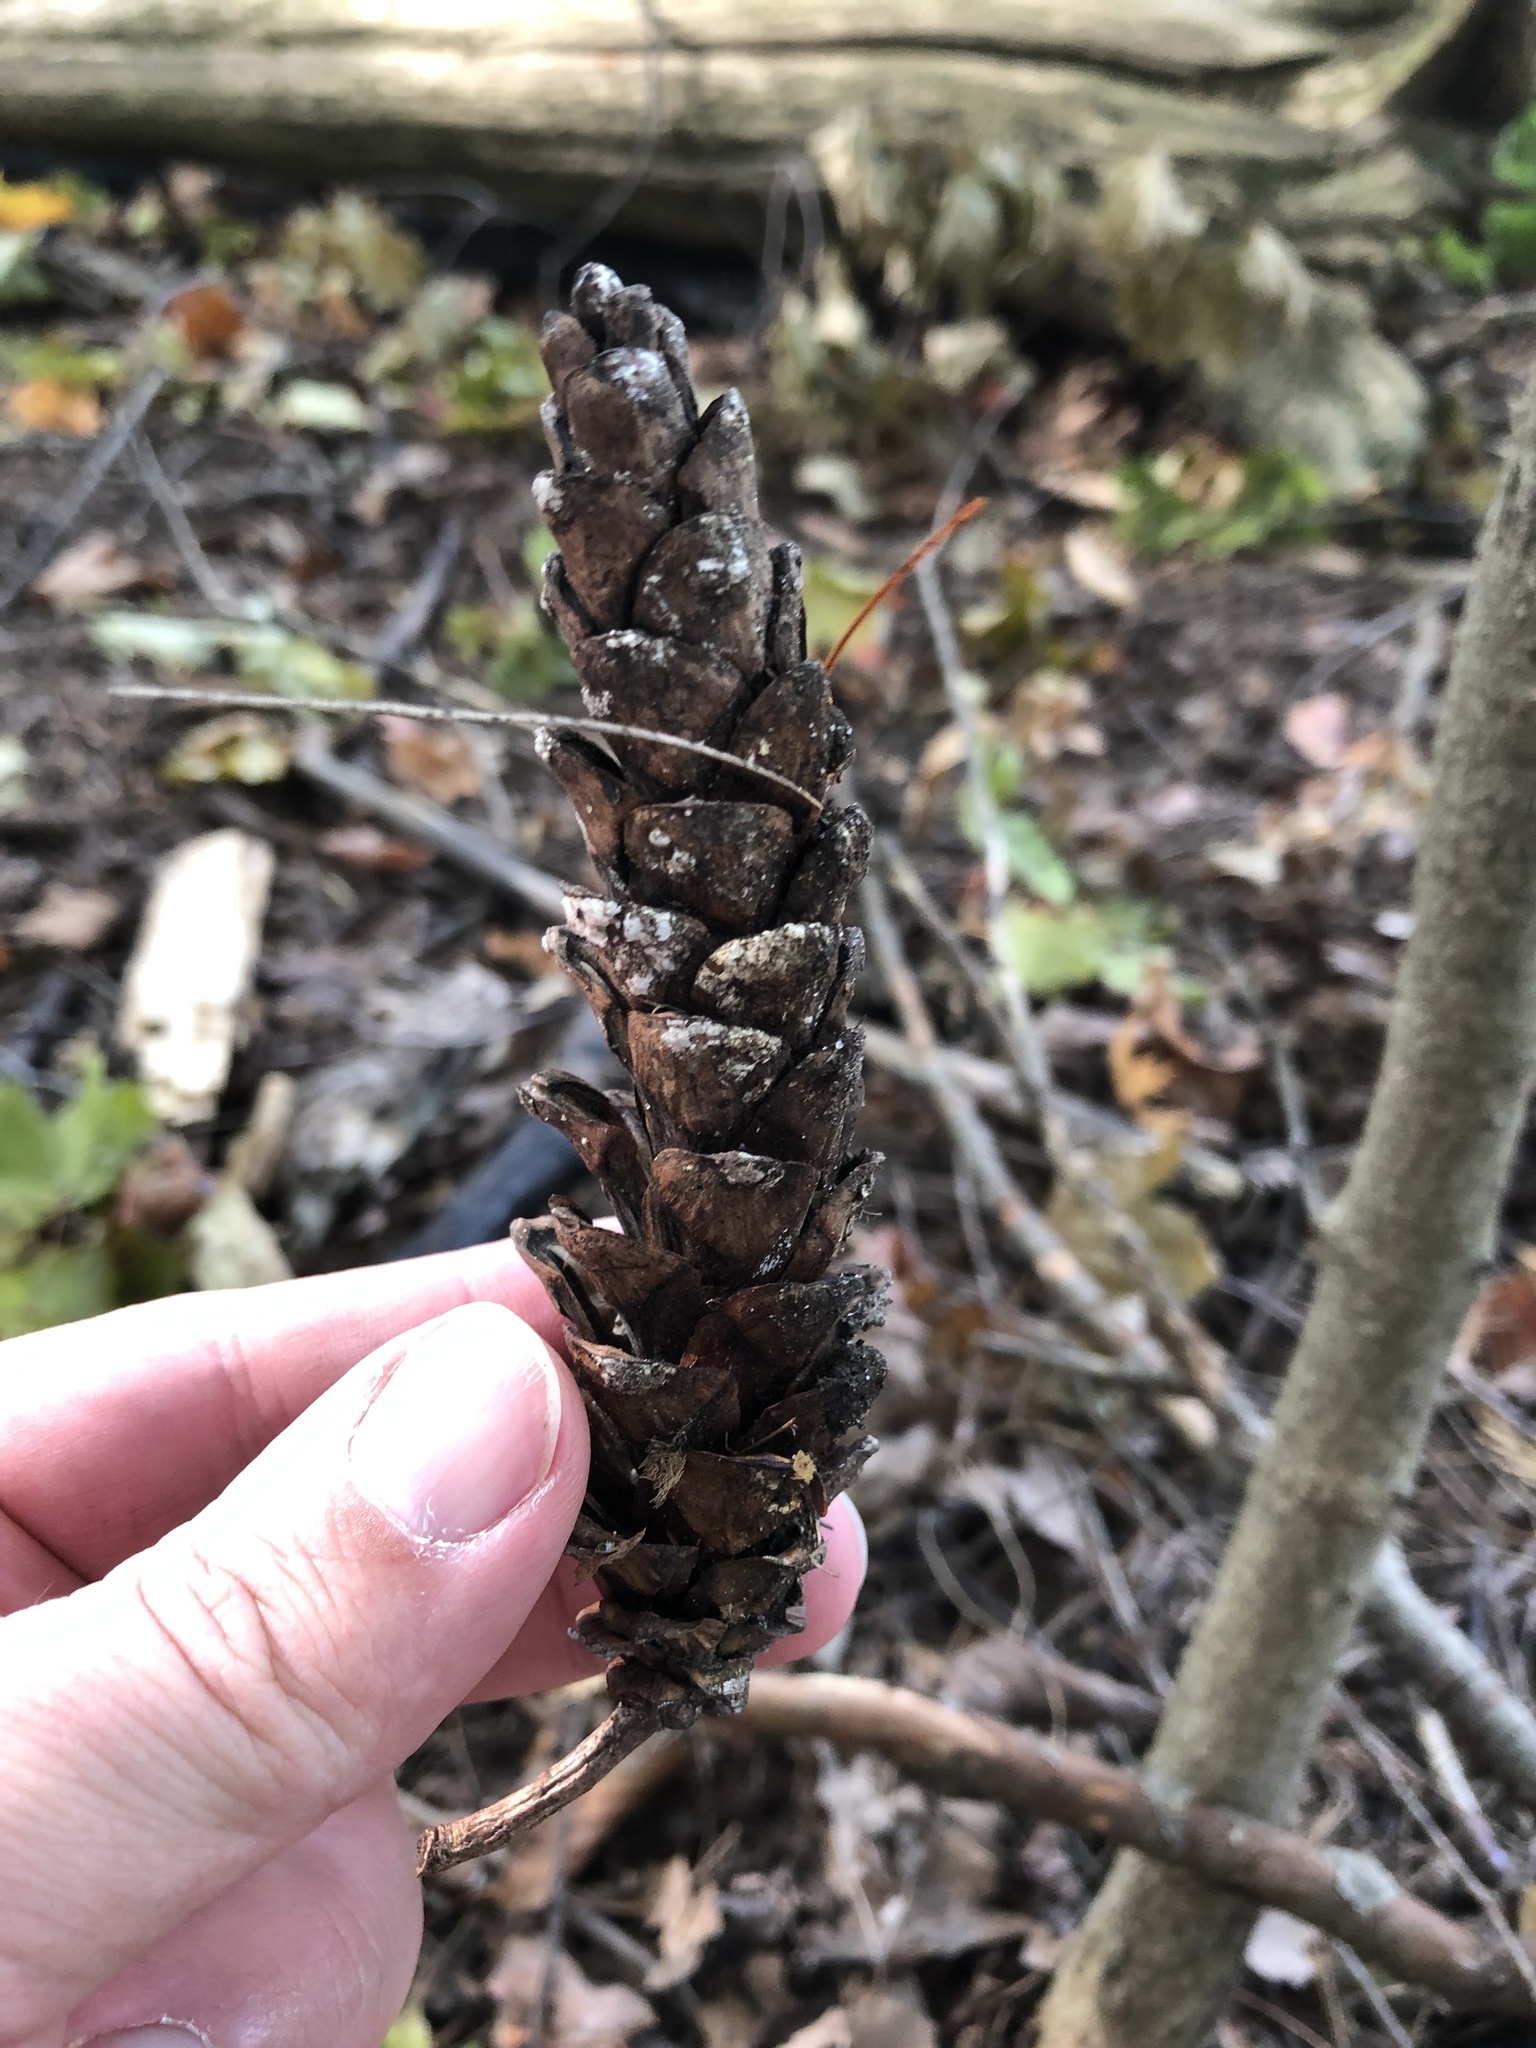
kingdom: Plantae
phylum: Tracheophyta
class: Pinopsida
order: Pinales
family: Pinaceae
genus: Pinus
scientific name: Pinus strobus
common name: Weymouth pine
